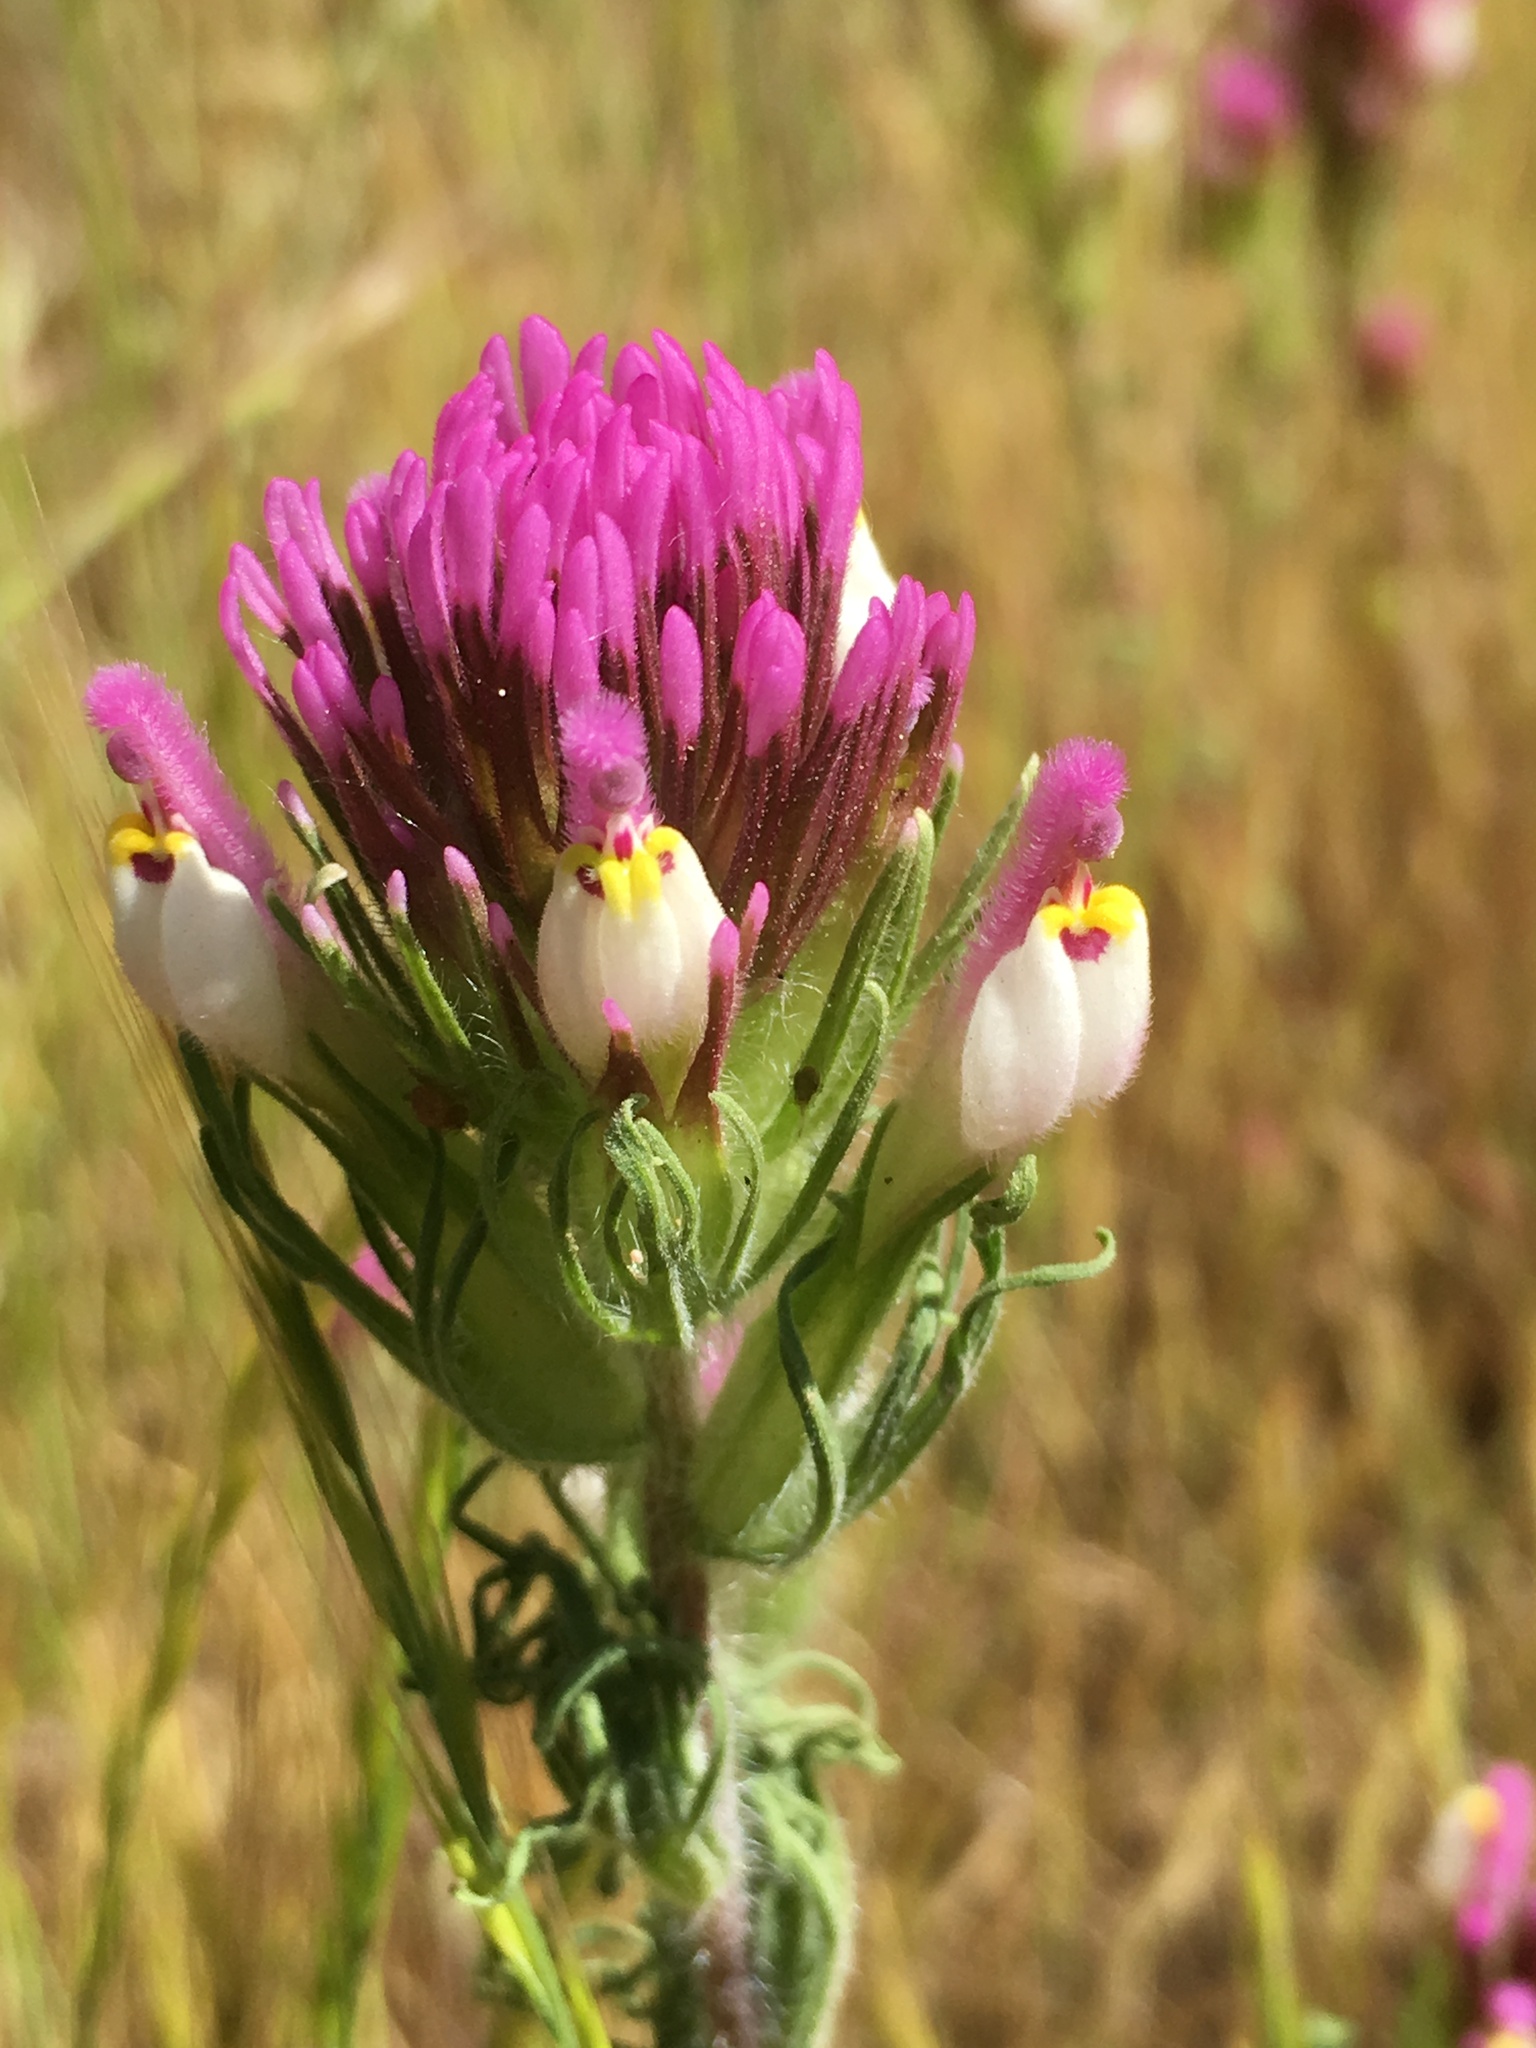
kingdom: Plantae
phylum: Tracheophyta
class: Magnoliopsida
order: Lamiales
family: Orobanchaceae
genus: Castilleja
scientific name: Castilleja exserta
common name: Purple owl-clover
